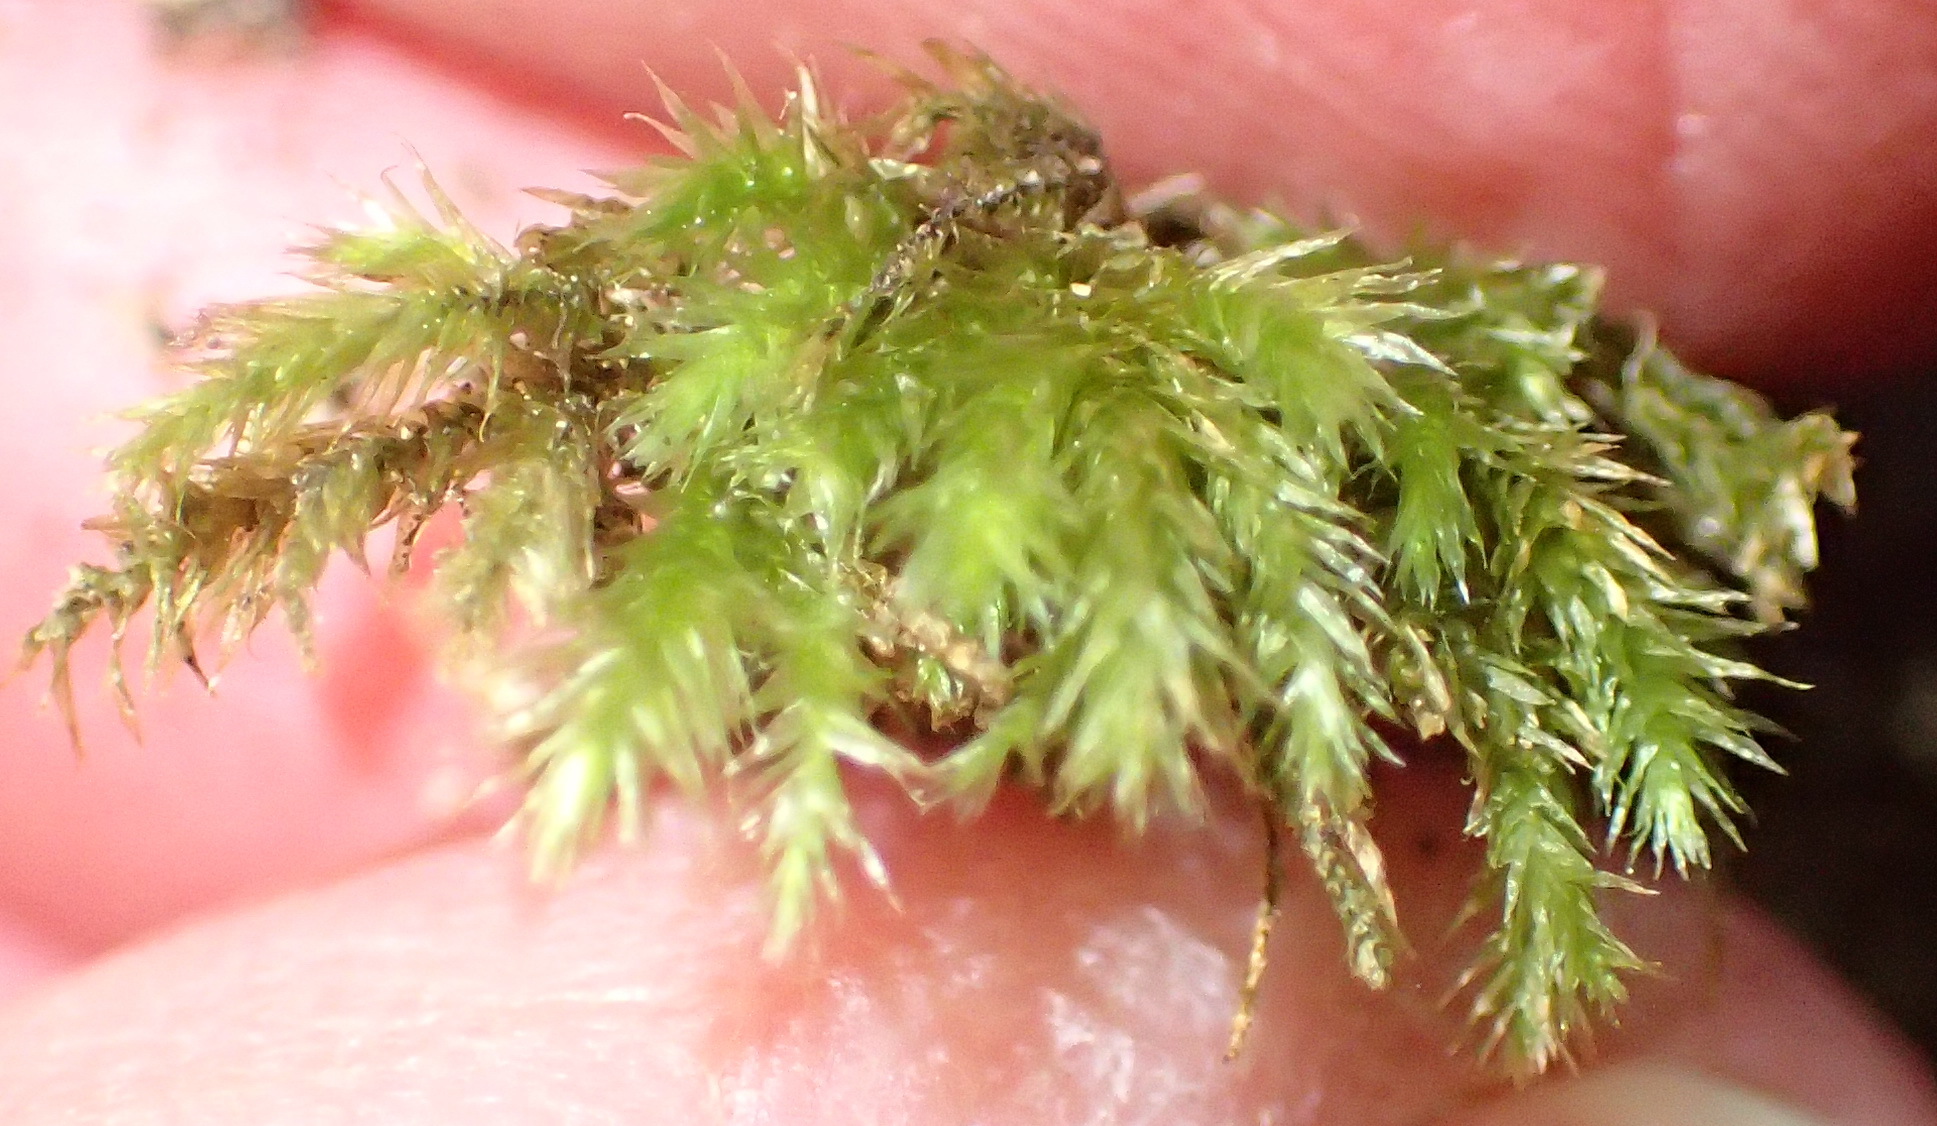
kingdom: Plantae
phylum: Bryophyta
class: Bryopsida
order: Hypnales
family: Brachytheciaceae
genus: Palamocladium
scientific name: Palamocladium leskeoides
